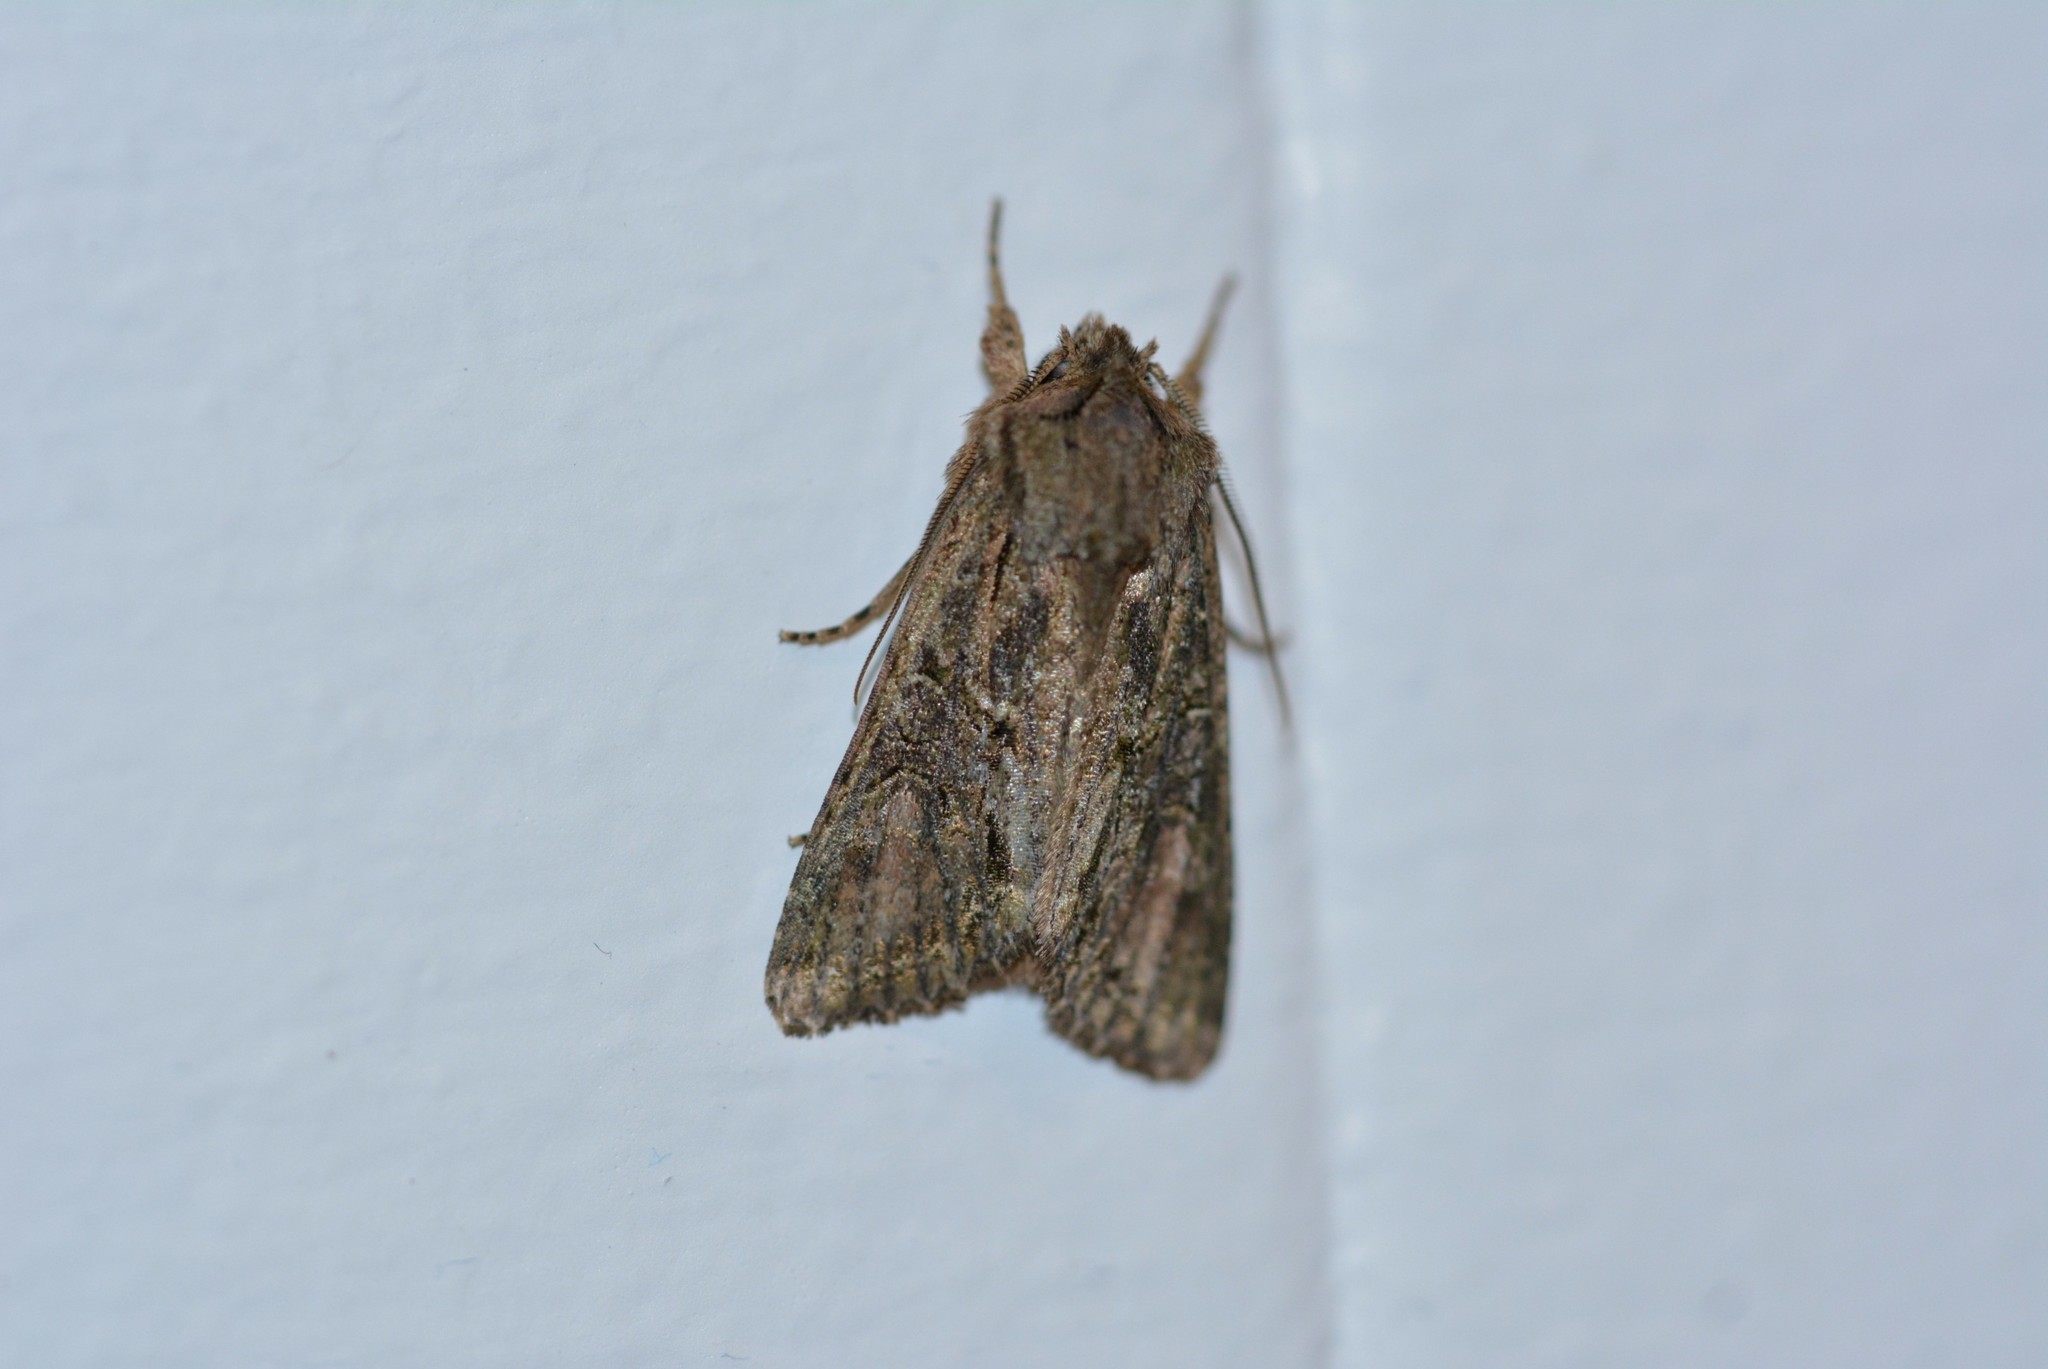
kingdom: Animalia
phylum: Arthropoda
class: Insecta
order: Lepidoptera
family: Noctuidae
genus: Ichneutica
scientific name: Ichneutica mutans
